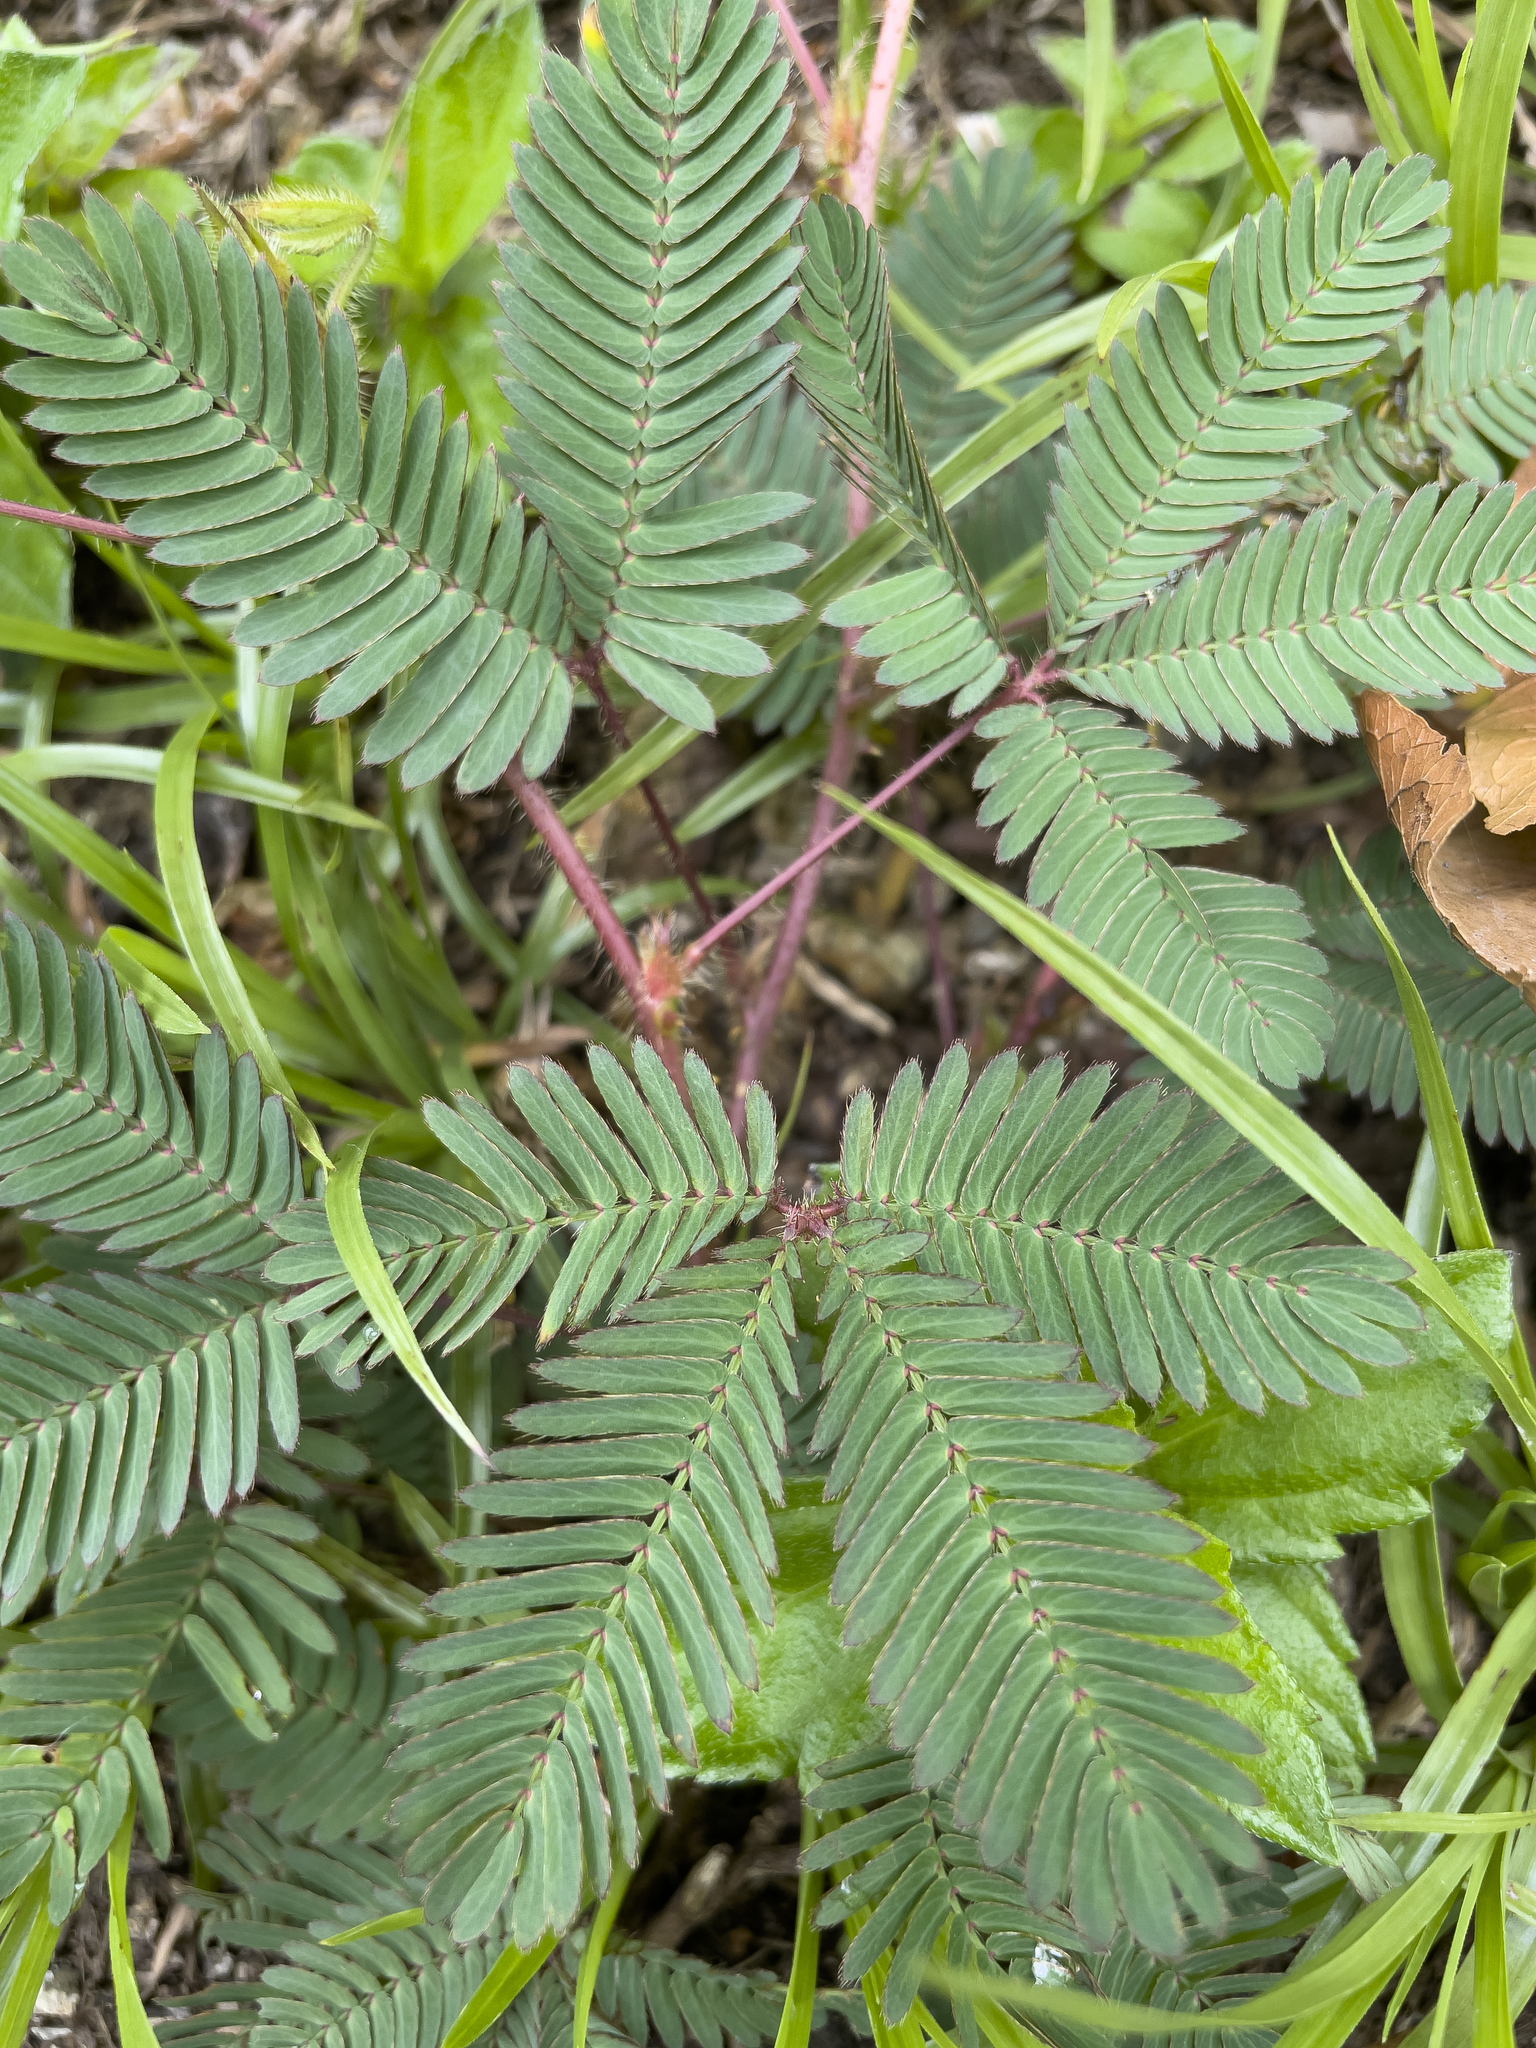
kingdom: Plantae
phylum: Tracheophyta
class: Magnoliopsida
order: Fabales
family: Fabaceae
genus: Mimosa
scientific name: Mimosa pudica
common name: Sensitive plant
